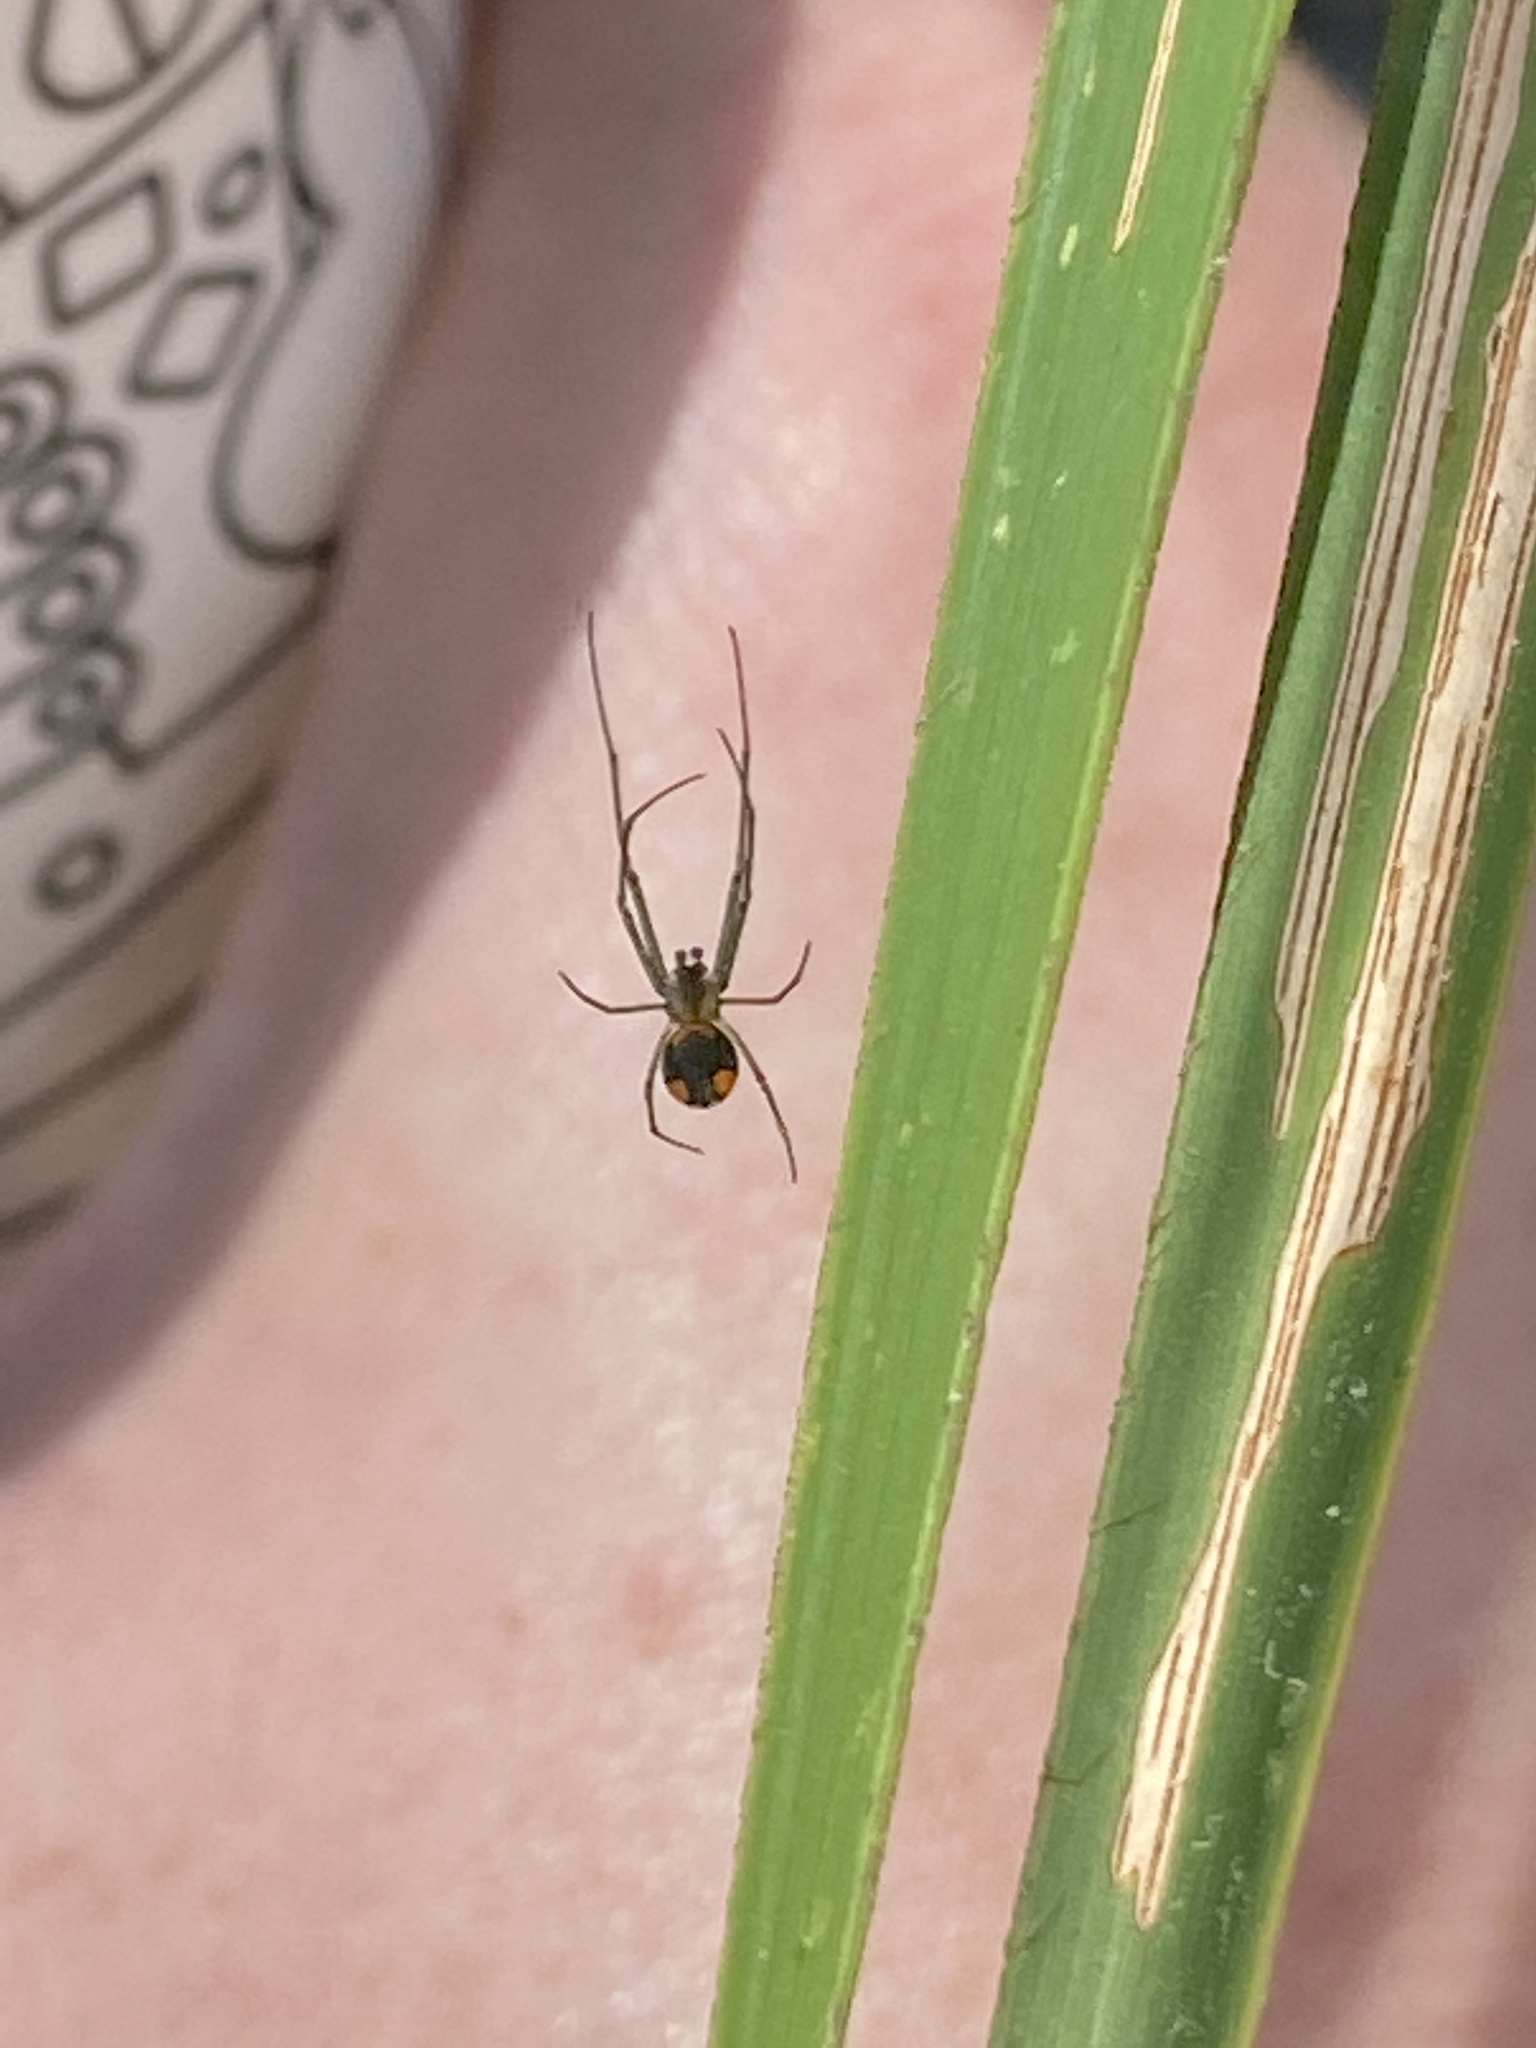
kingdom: Animalia
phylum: Arthropoda
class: Arachnida
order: Araneae
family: Tetragnathidae
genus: Leucauge
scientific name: Leucauge argyrobapta
